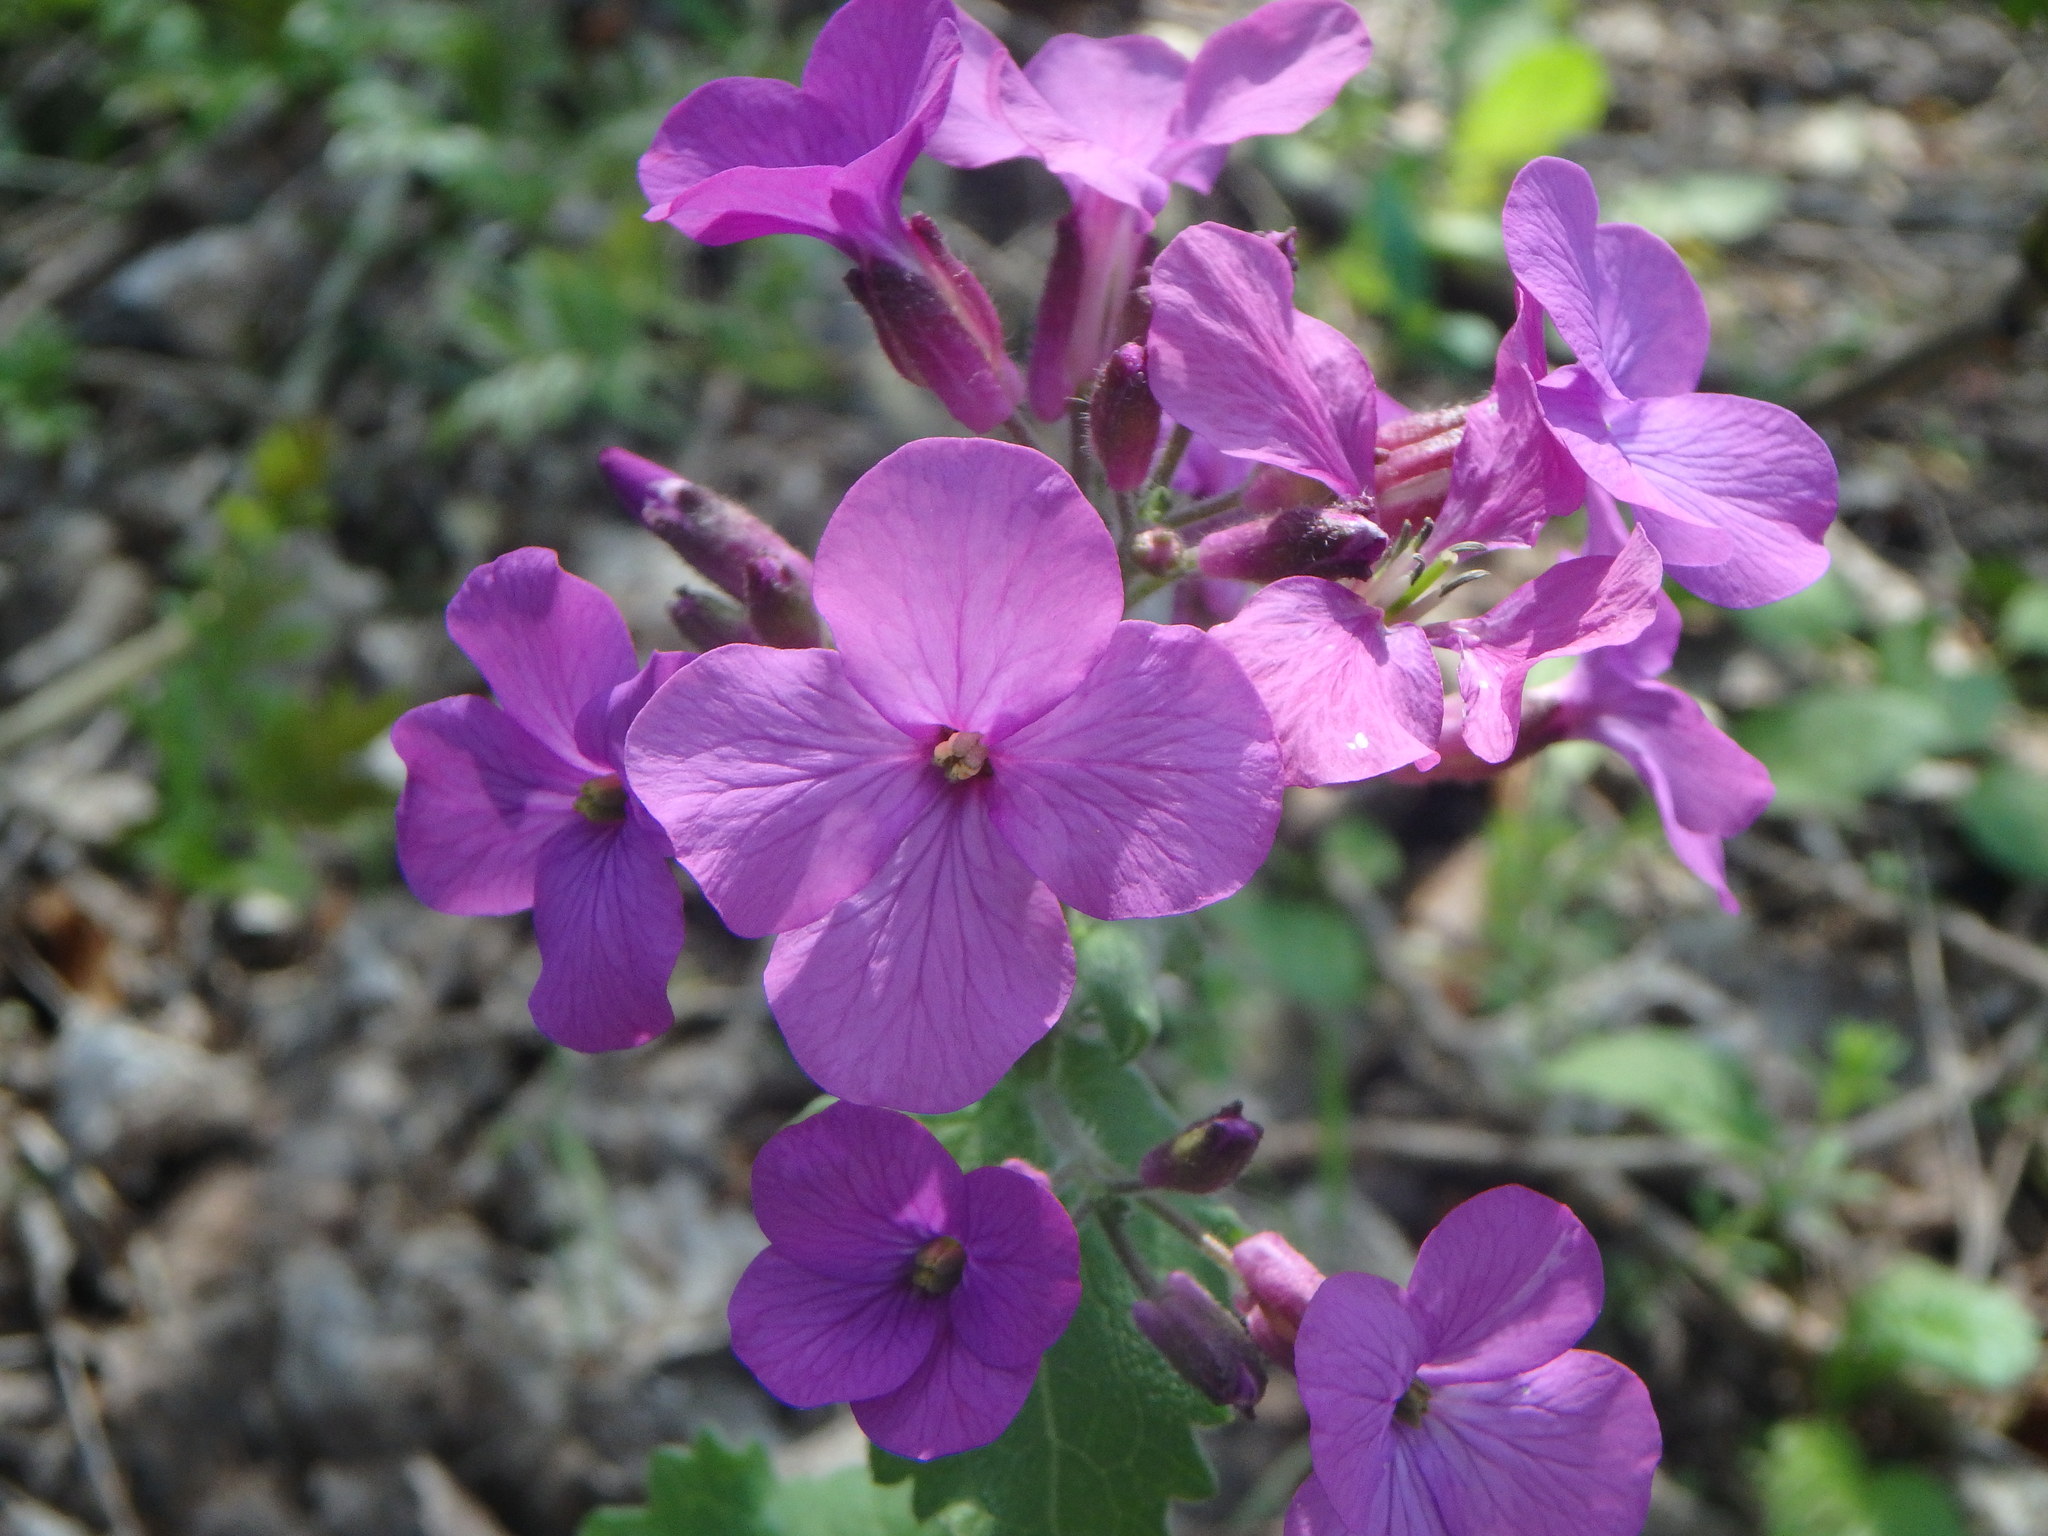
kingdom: Plantae
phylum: Tracheophyta
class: Magnoliopsida
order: Brassicales
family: Brassicaceae
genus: Lunaria
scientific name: Lunaria annua
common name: Honesty
